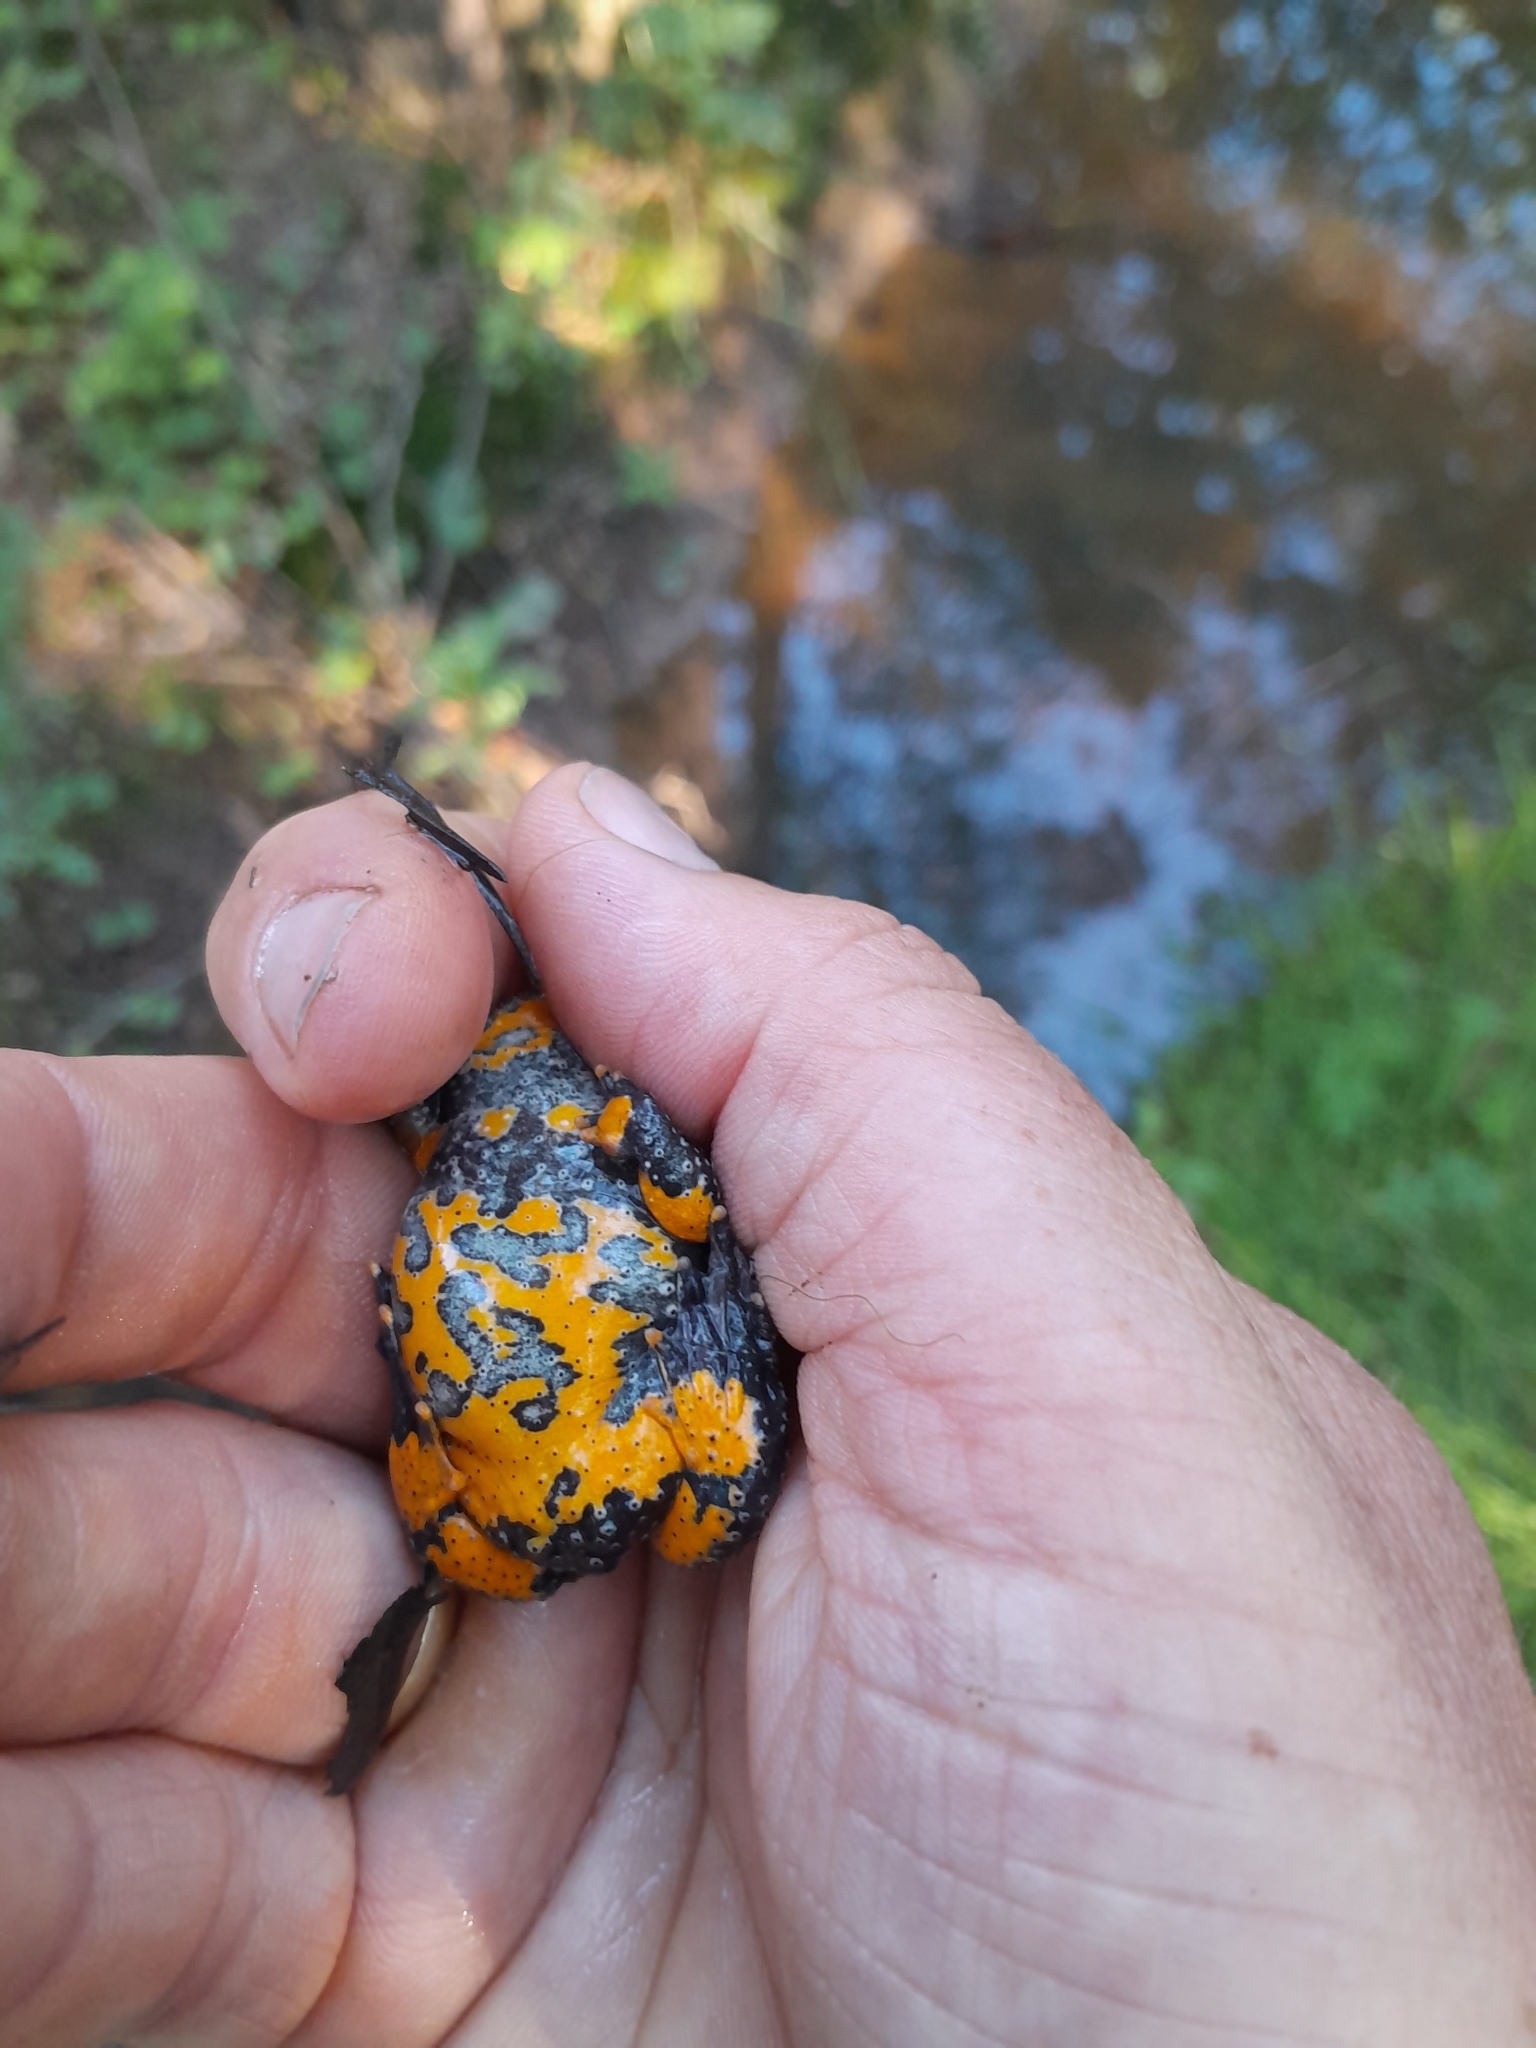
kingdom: Animalia
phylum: Chordata
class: Amphibia
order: Anura
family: Bombinatoridae
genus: Bombina
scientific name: Bombina variegata
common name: Yellow-bellied toad
